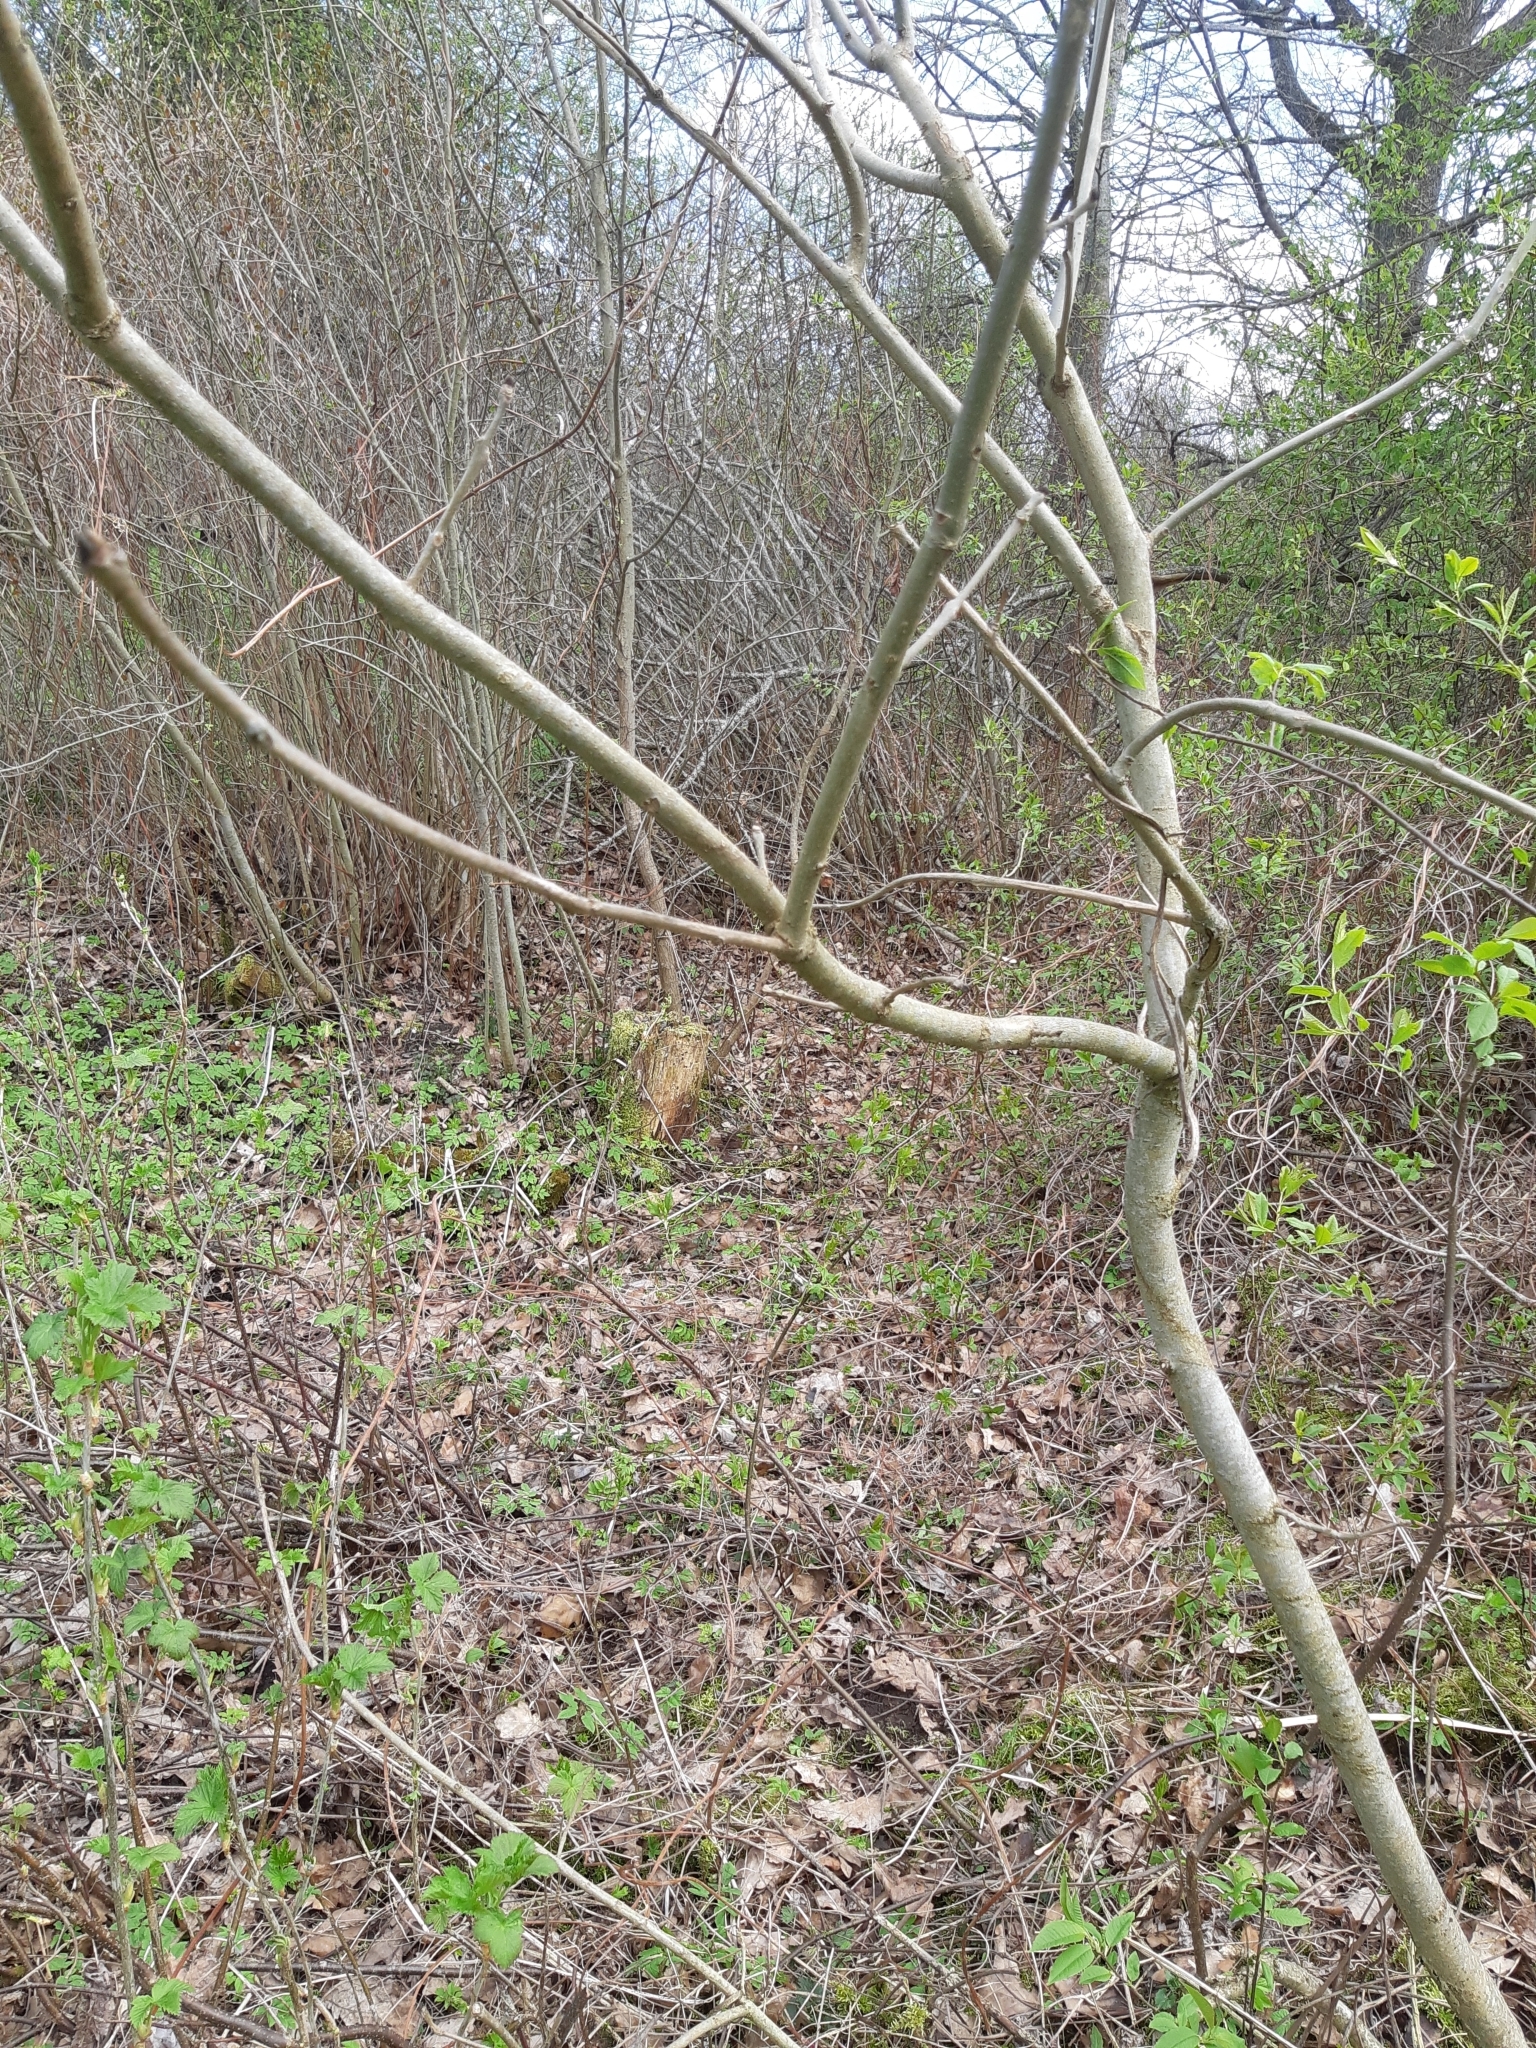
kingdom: Plantae
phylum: Tracheophyta
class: Magnoliopsida
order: Lamiales
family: Oleaceae
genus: Fraxinus
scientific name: Fraxinus excelsior
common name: European ash
